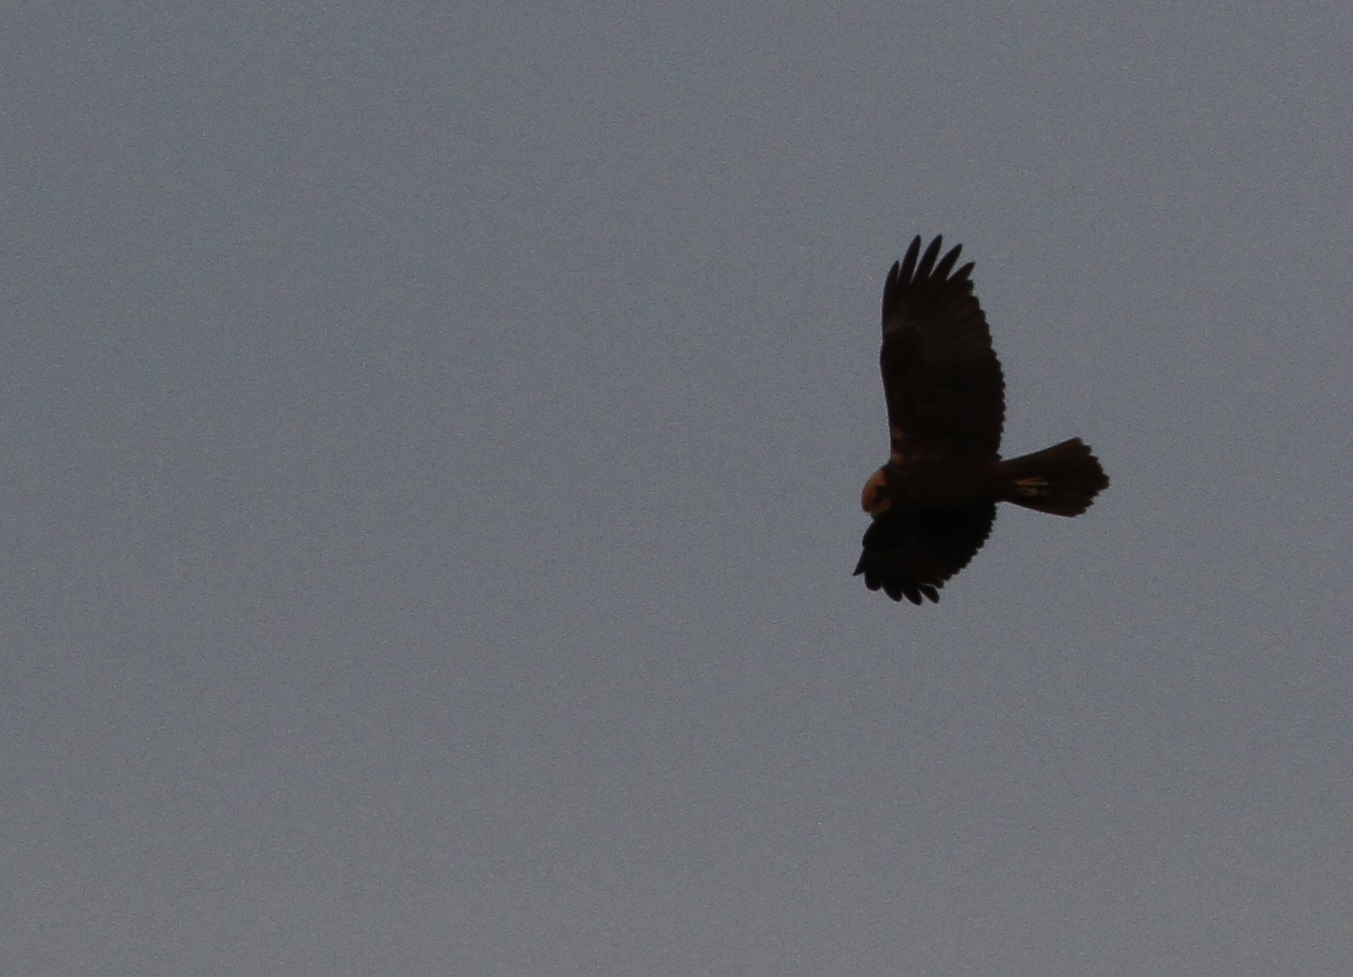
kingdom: Animalia
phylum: Chordata
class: Aves
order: Accipitriformes
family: Accipitridae
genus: Circus
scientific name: Circus aeruginosus
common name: Western marsh harrier
